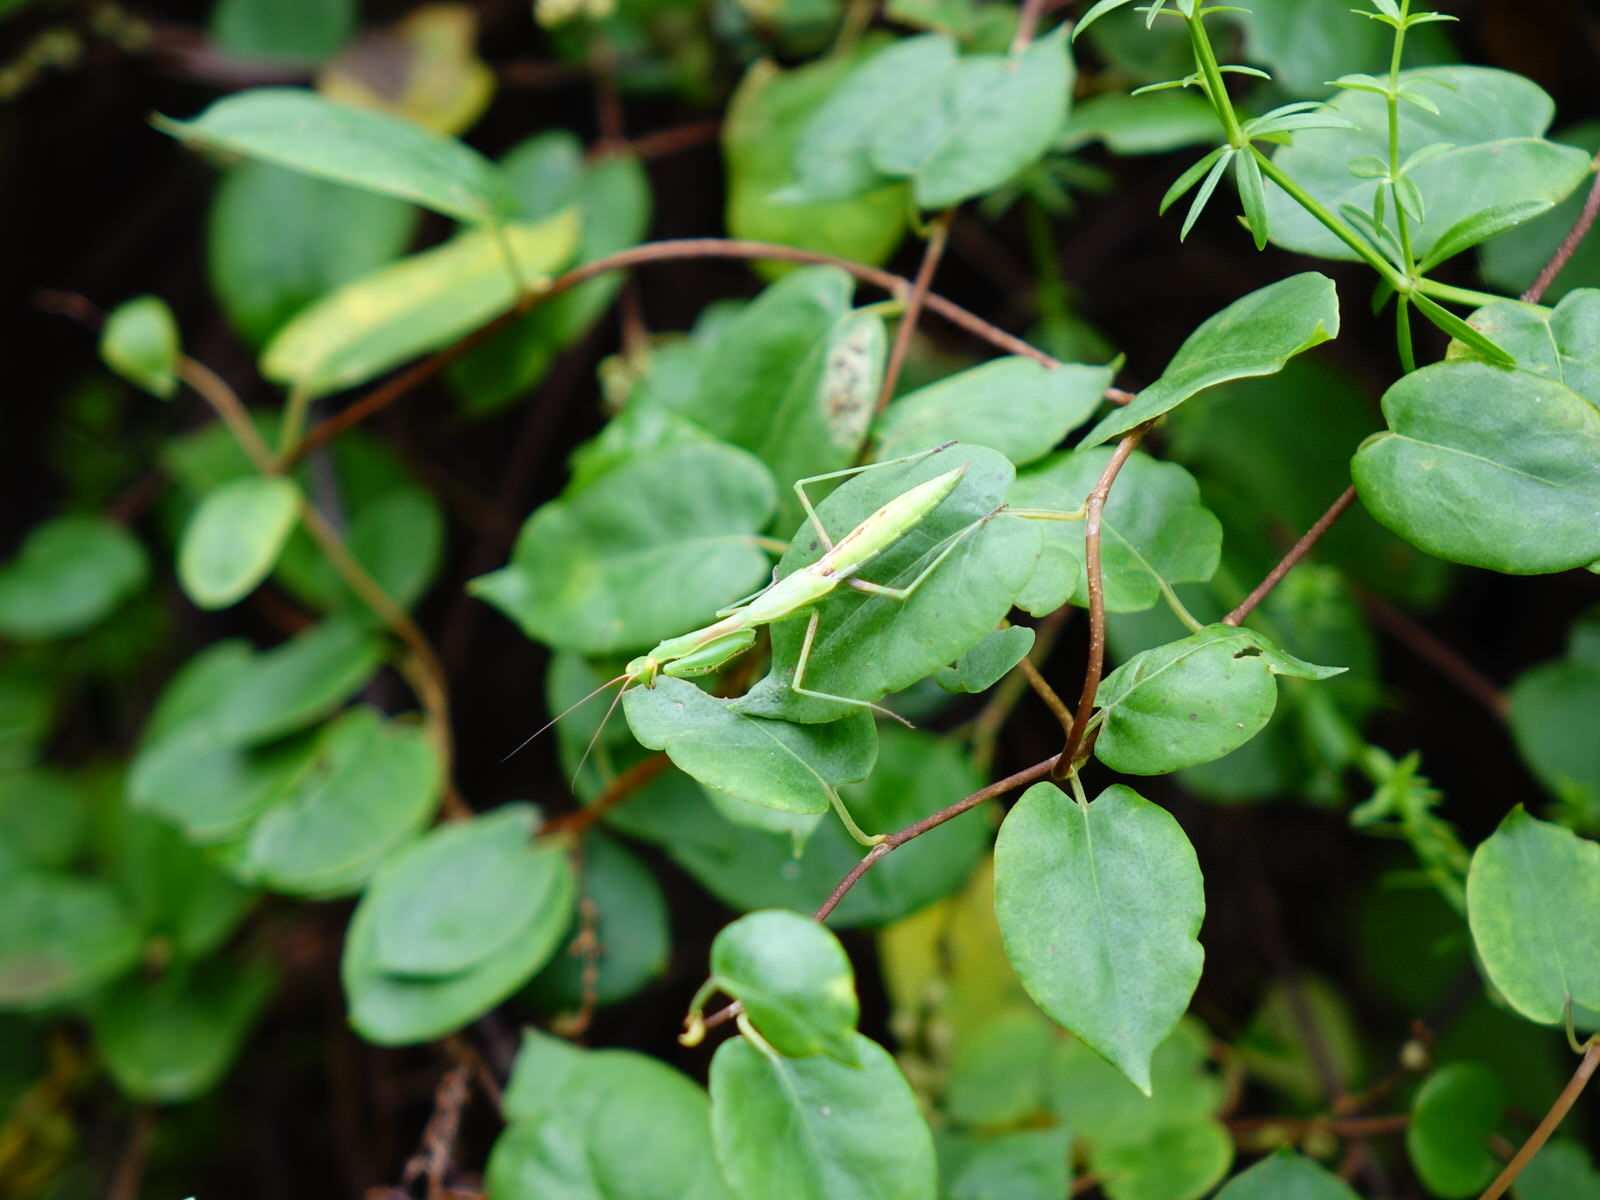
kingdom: Animalia
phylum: Arthropoda
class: Insecta
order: Mantodea
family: Miomantidae
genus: Miomantis
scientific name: Miomantis caffra
